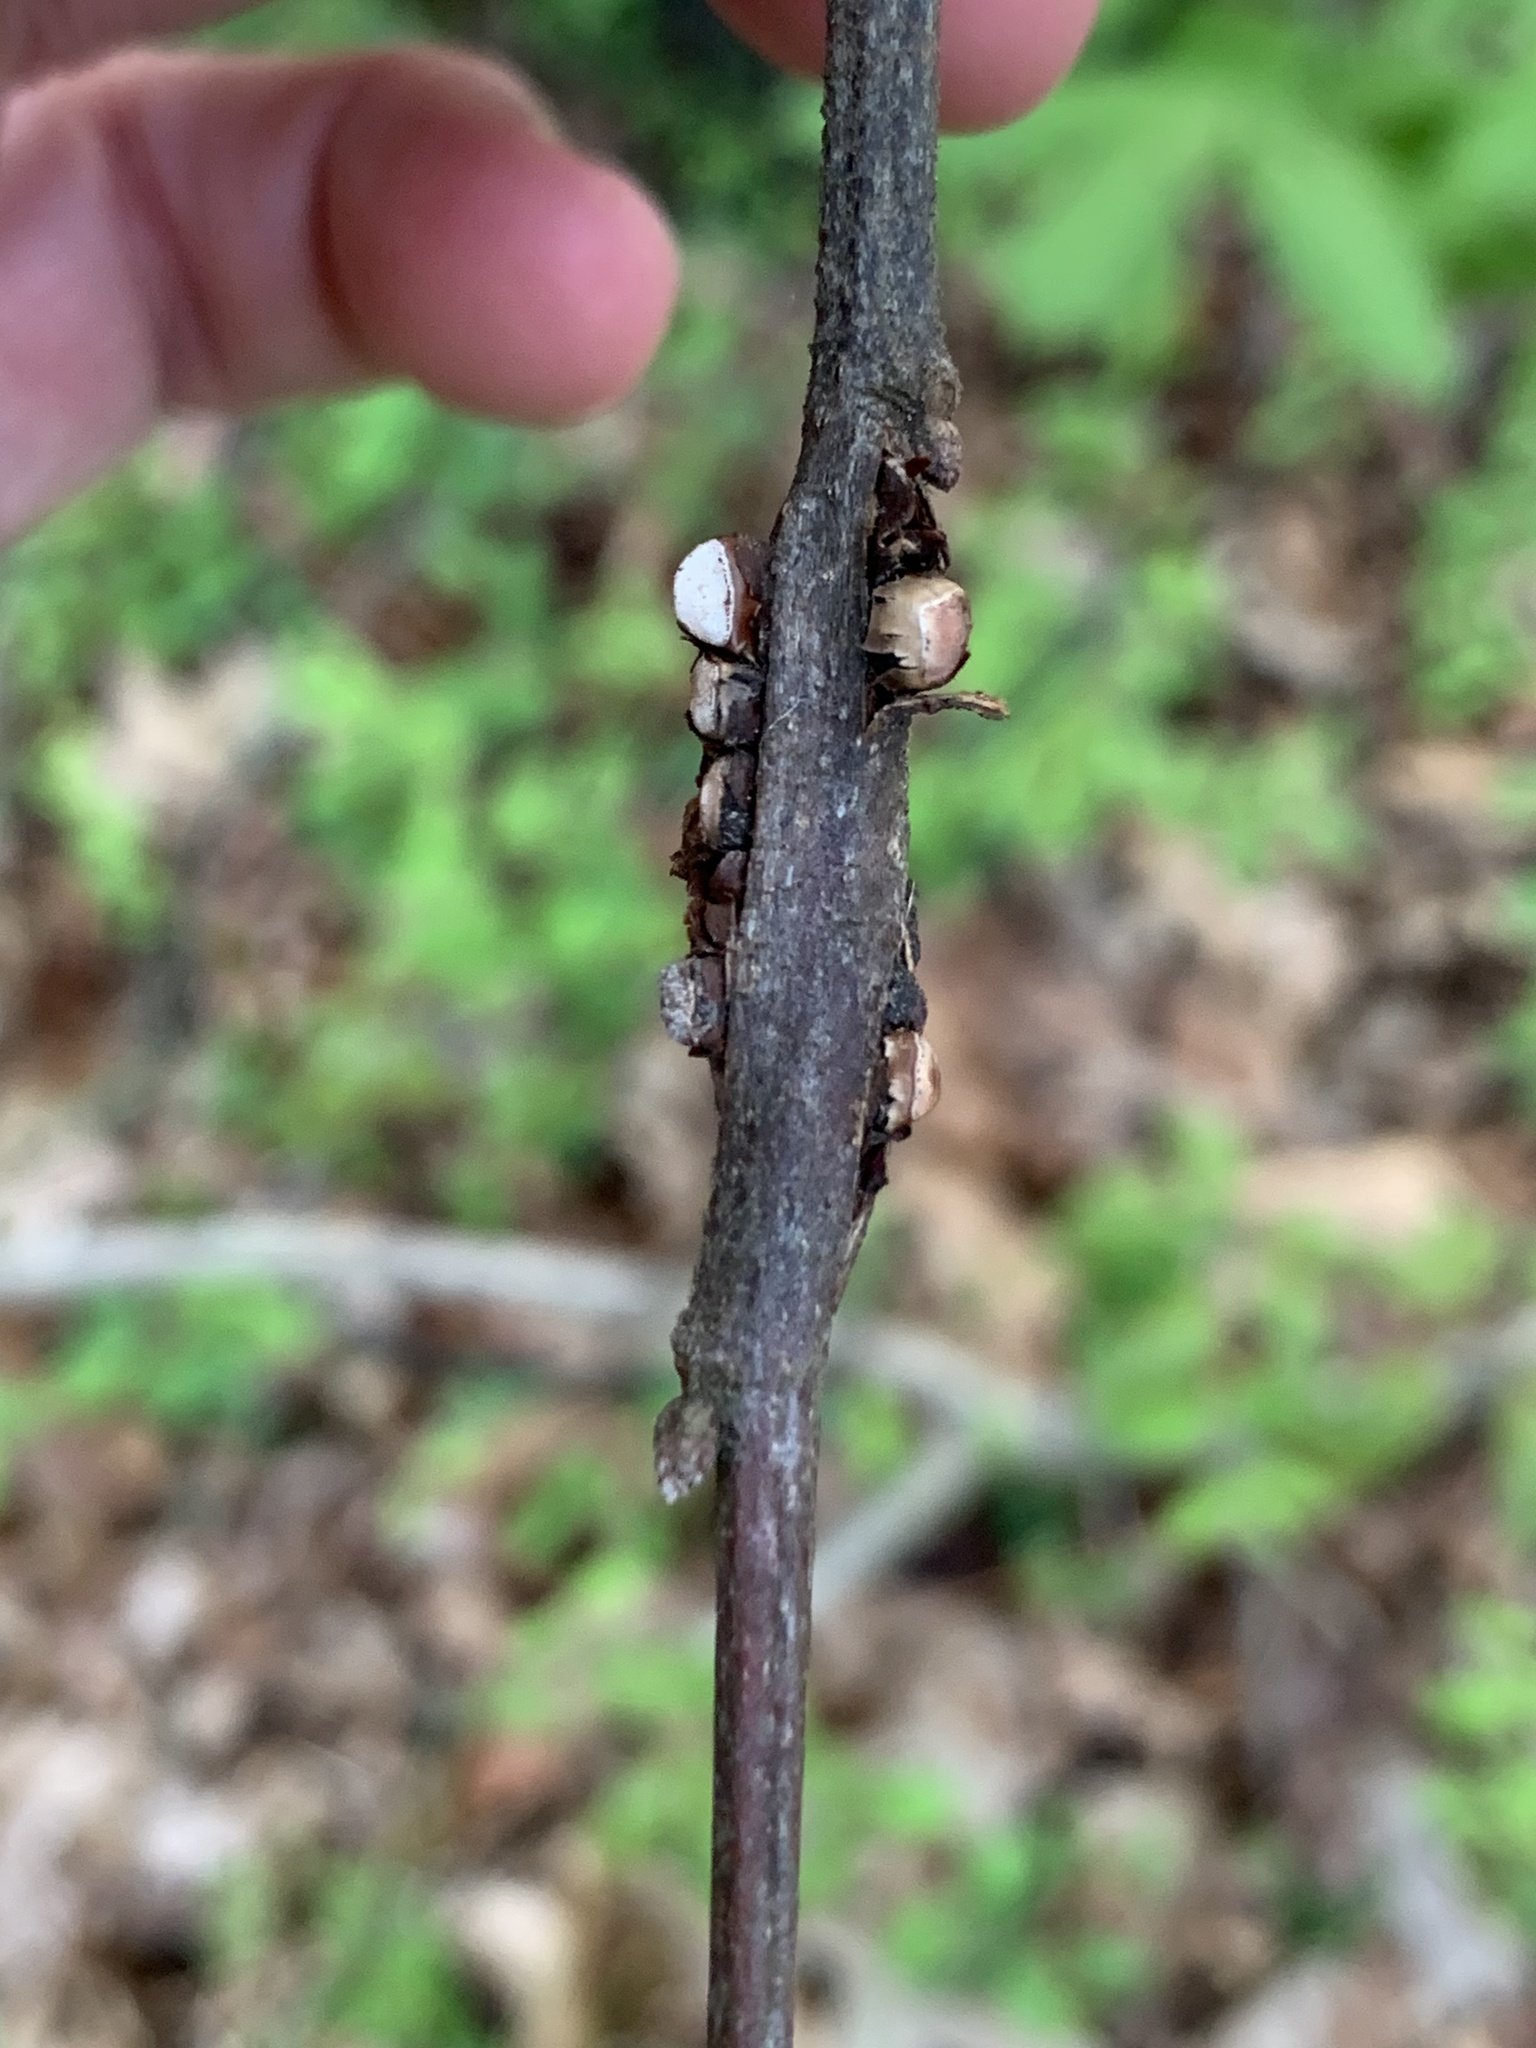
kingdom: Animalia
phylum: Arthropoda
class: Insecta
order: Hymenoptera
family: Cynipidae
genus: Callirhytis
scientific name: Callirhytis
